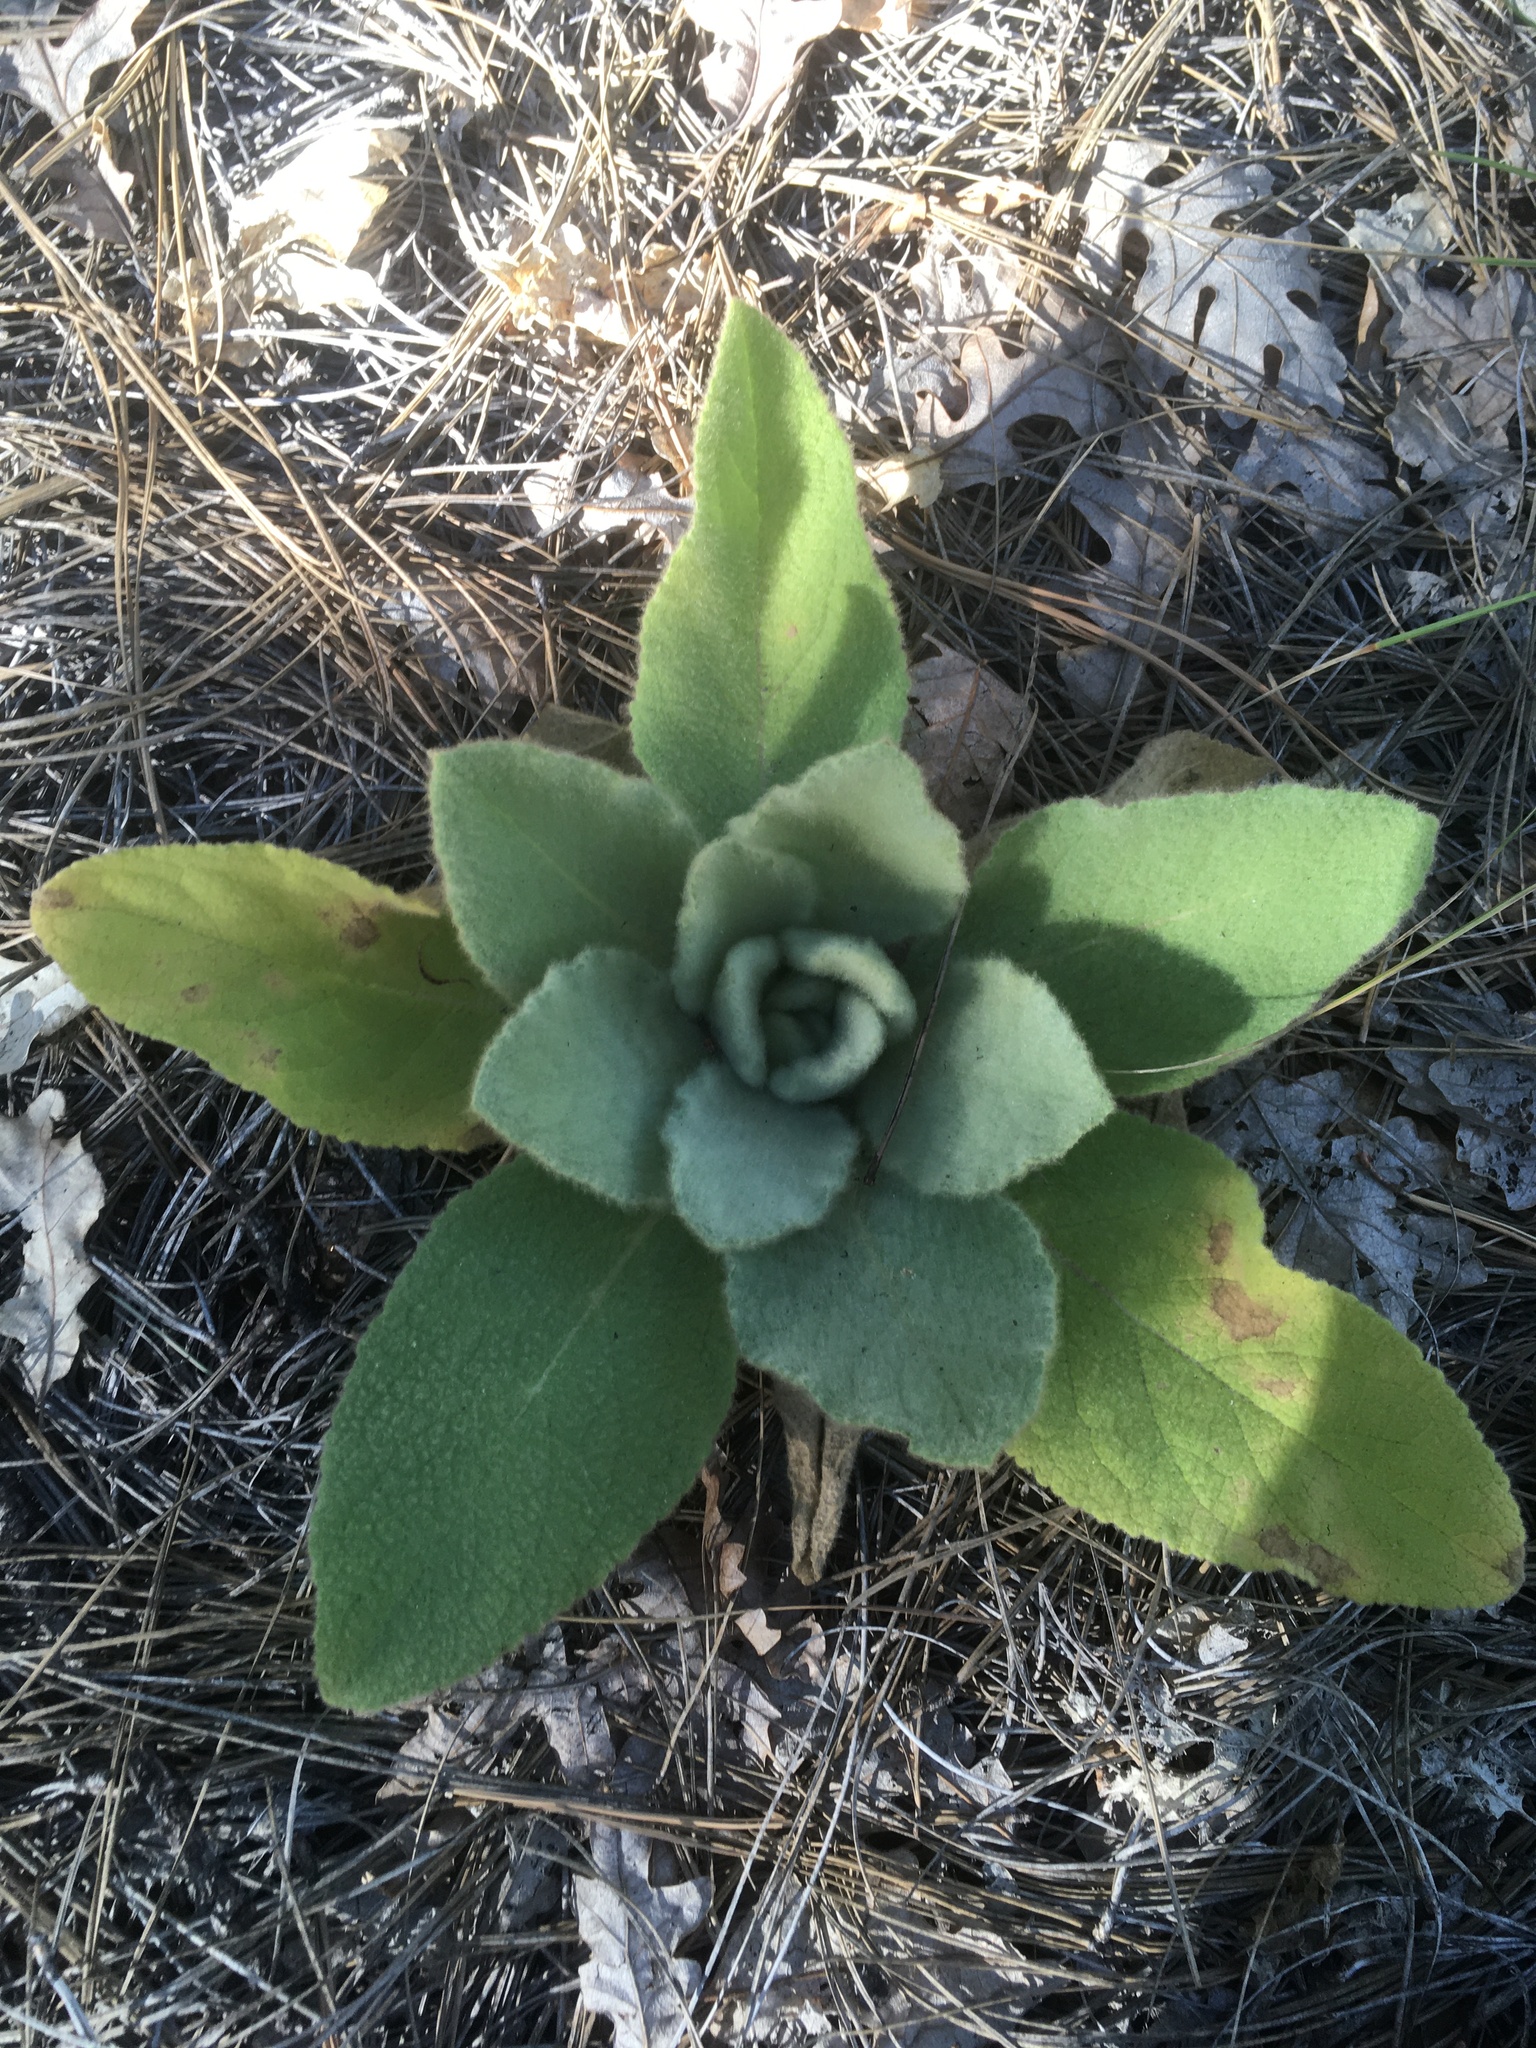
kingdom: Plantae
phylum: Tracheophyta
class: Magnoliopsida
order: Lamiales
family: Scrophulariaceae
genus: Verbascum
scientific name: Verbascum thapsus
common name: Common mullein
